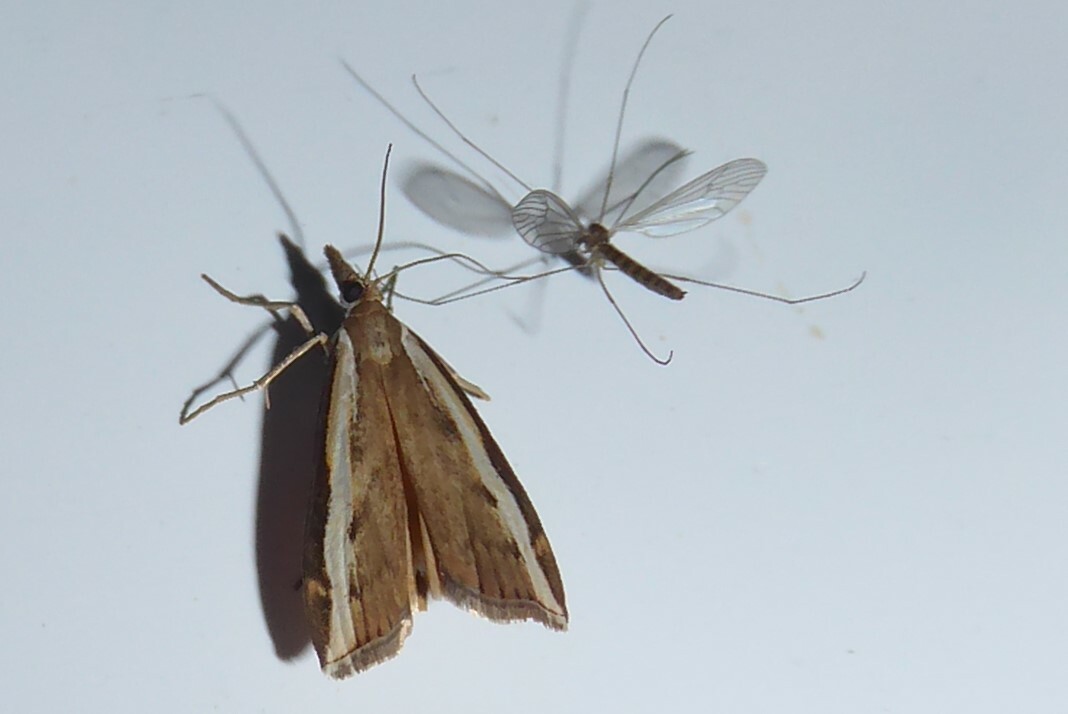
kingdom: Animalia
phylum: Arthropoda
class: Insecta
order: Lepidoptera
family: Crambidae
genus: Orocrambus
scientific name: Orocrambus flexuosellus
